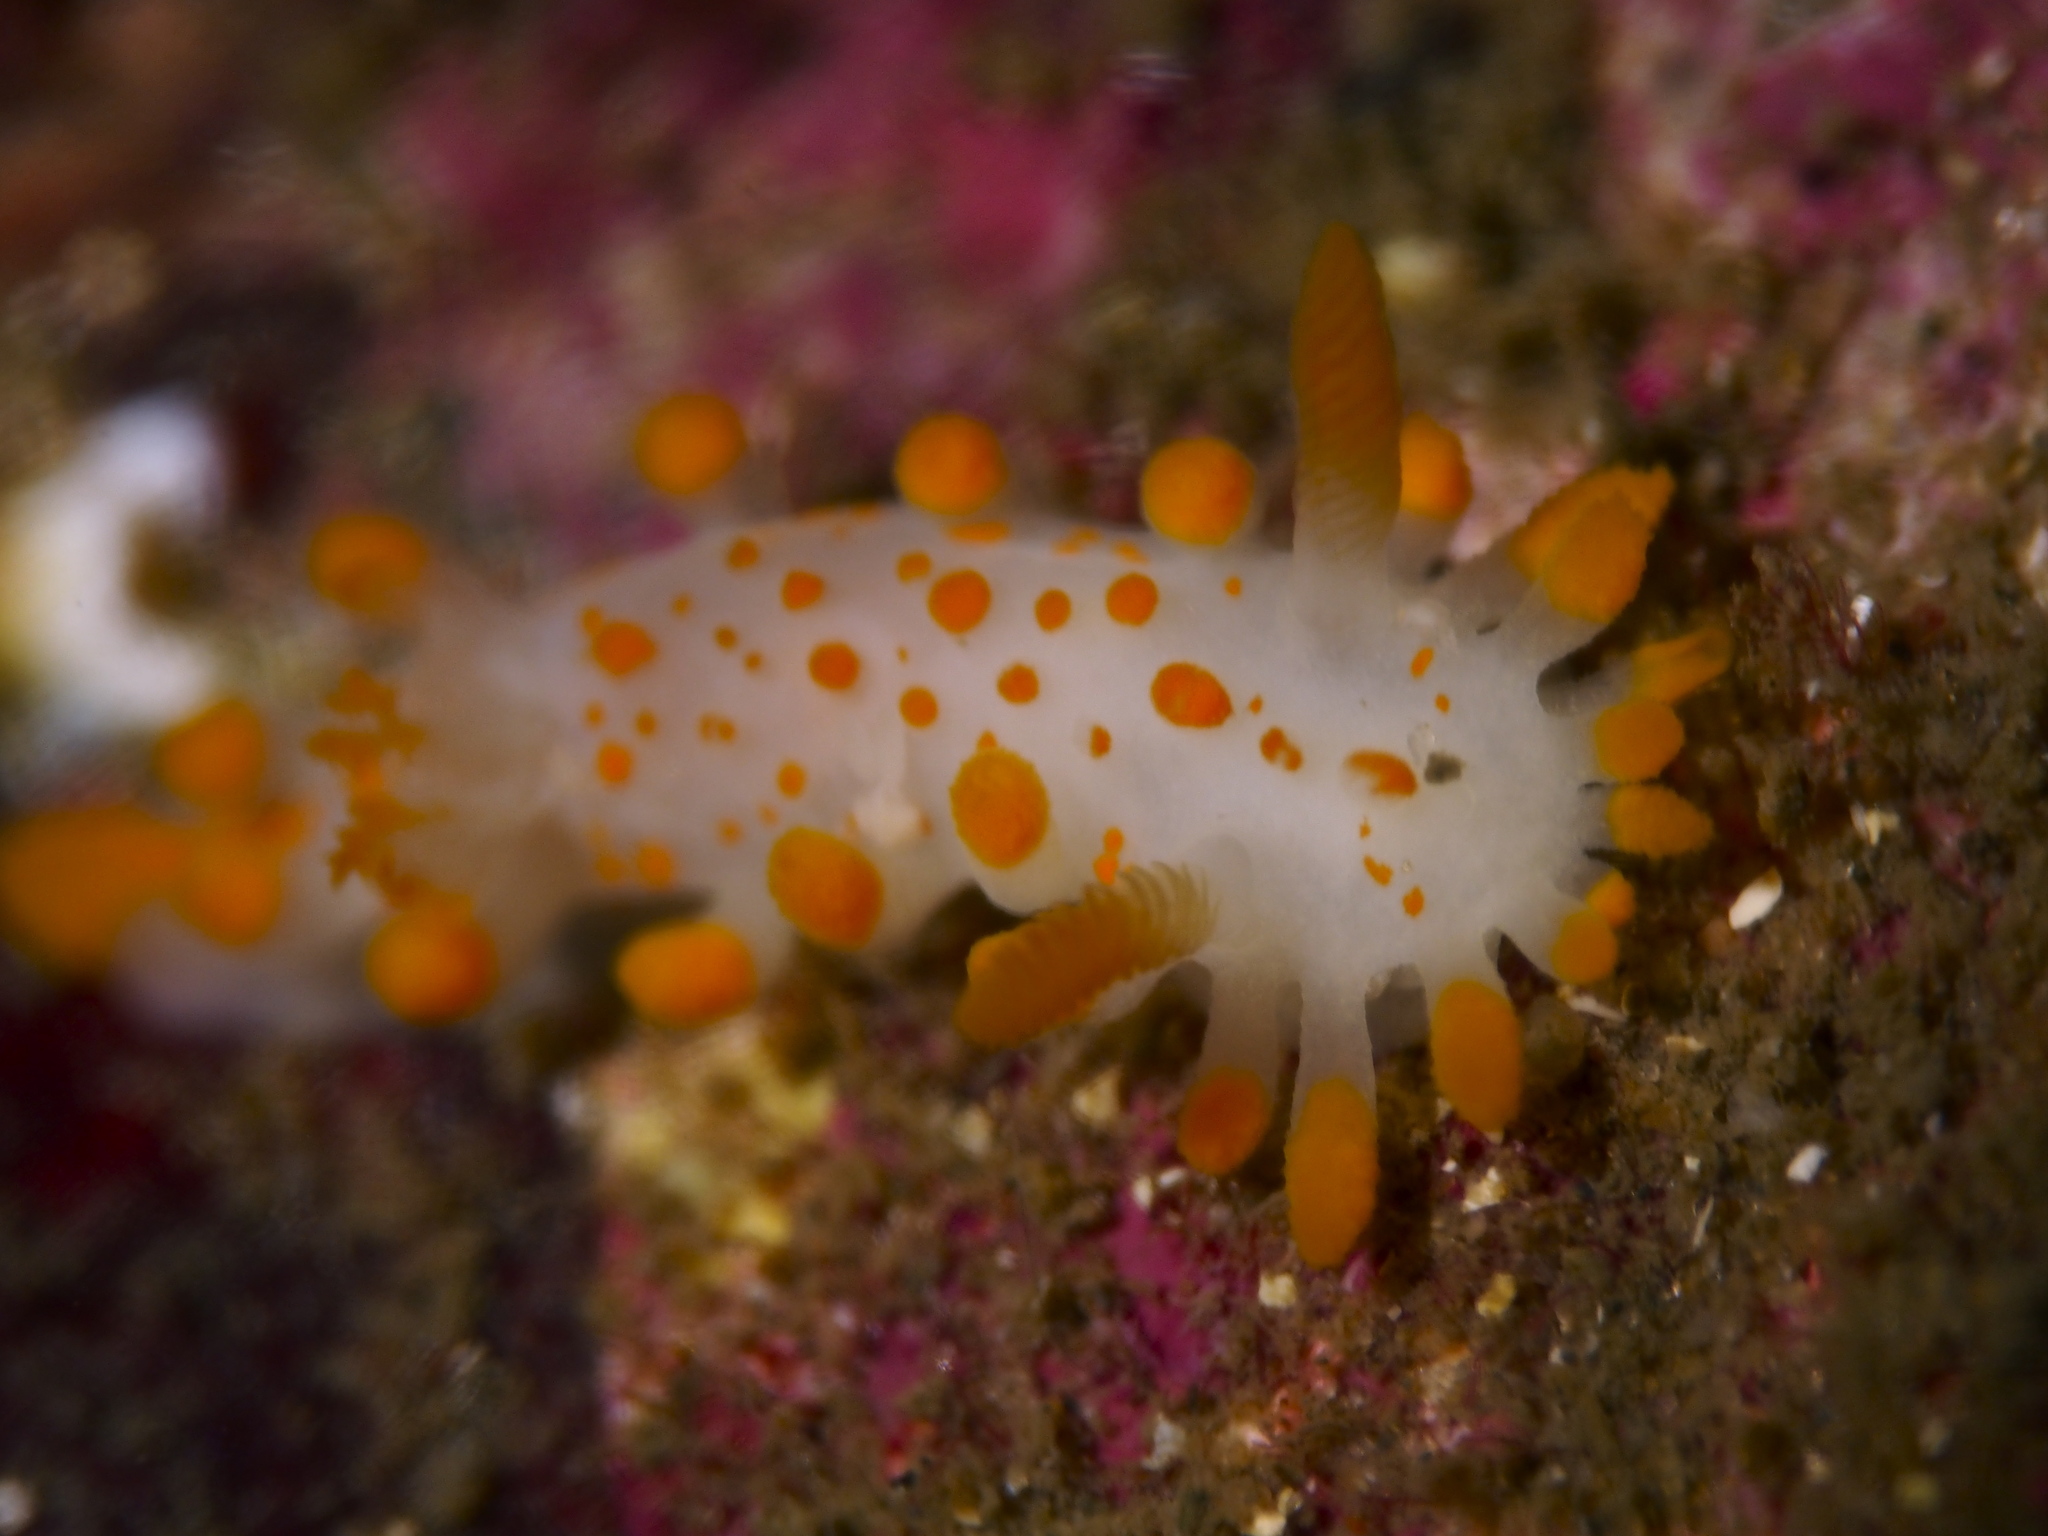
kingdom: Animalia
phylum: Mollusca
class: Gastropoda
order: Nudibranchia
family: Polyceridae
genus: Limacia
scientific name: Limacia clavigera
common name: Orange-clubbed sea slug
